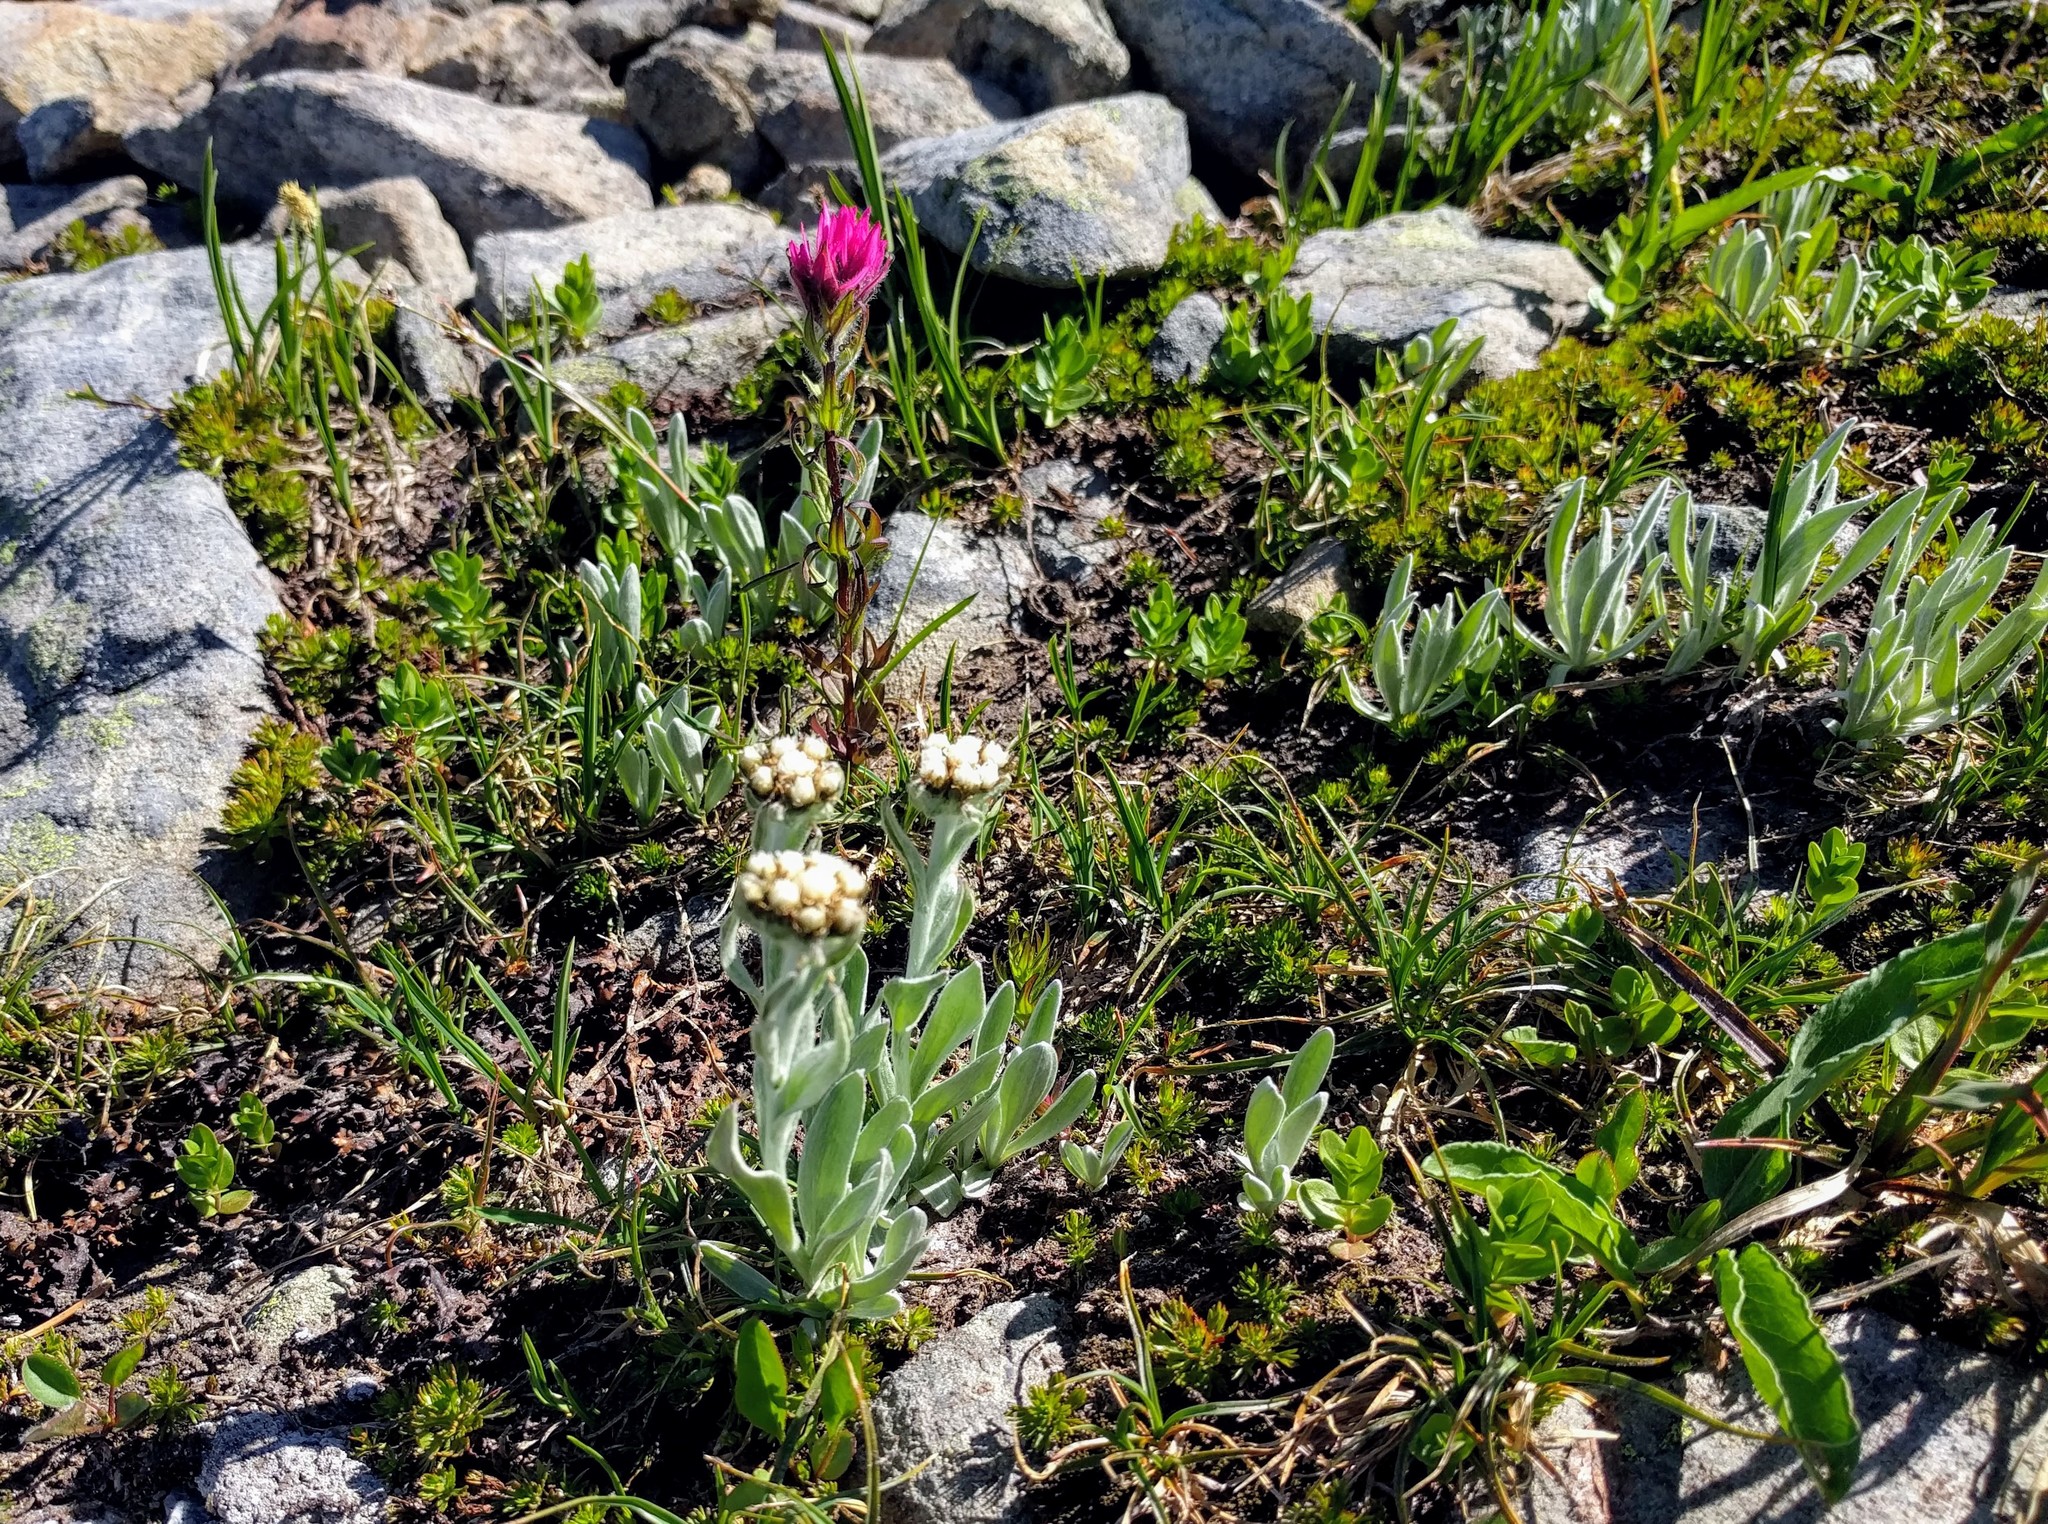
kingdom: Plantae
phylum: Tracheophyta
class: Magnoliopsida
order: Asterales
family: Asteraceae
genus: Antennaria
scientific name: Antennaria lanata
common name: Woolly pussytoes
